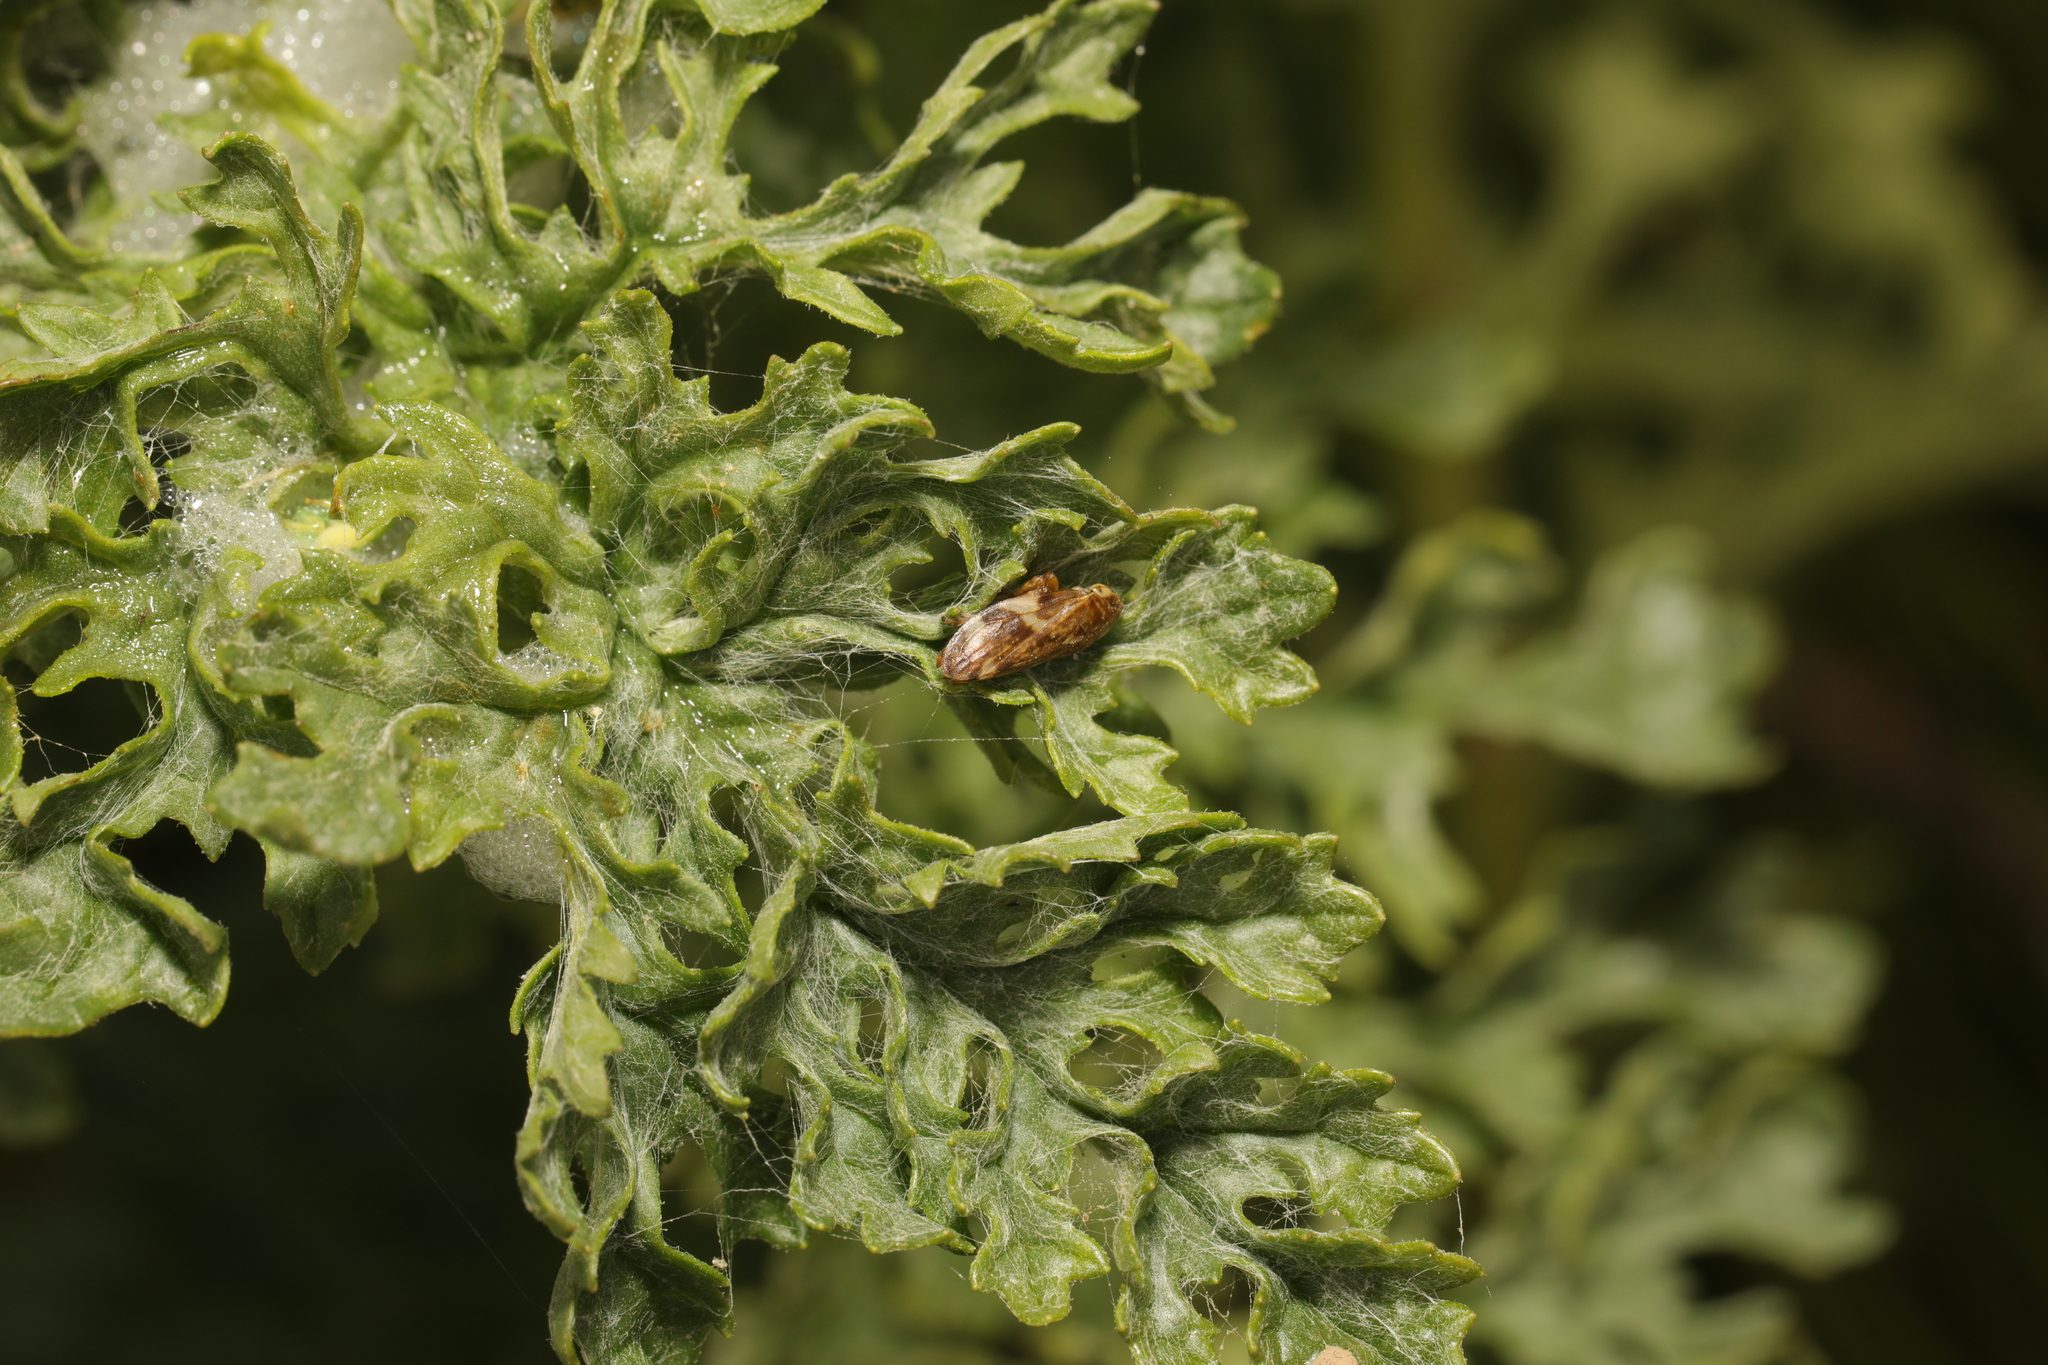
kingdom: Animalia
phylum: Arthropoda
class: Insecta
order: Hemiptera
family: Aphrophoridae
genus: Philaenus
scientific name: Philaenus spumarius
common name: Meadow spittlebug
